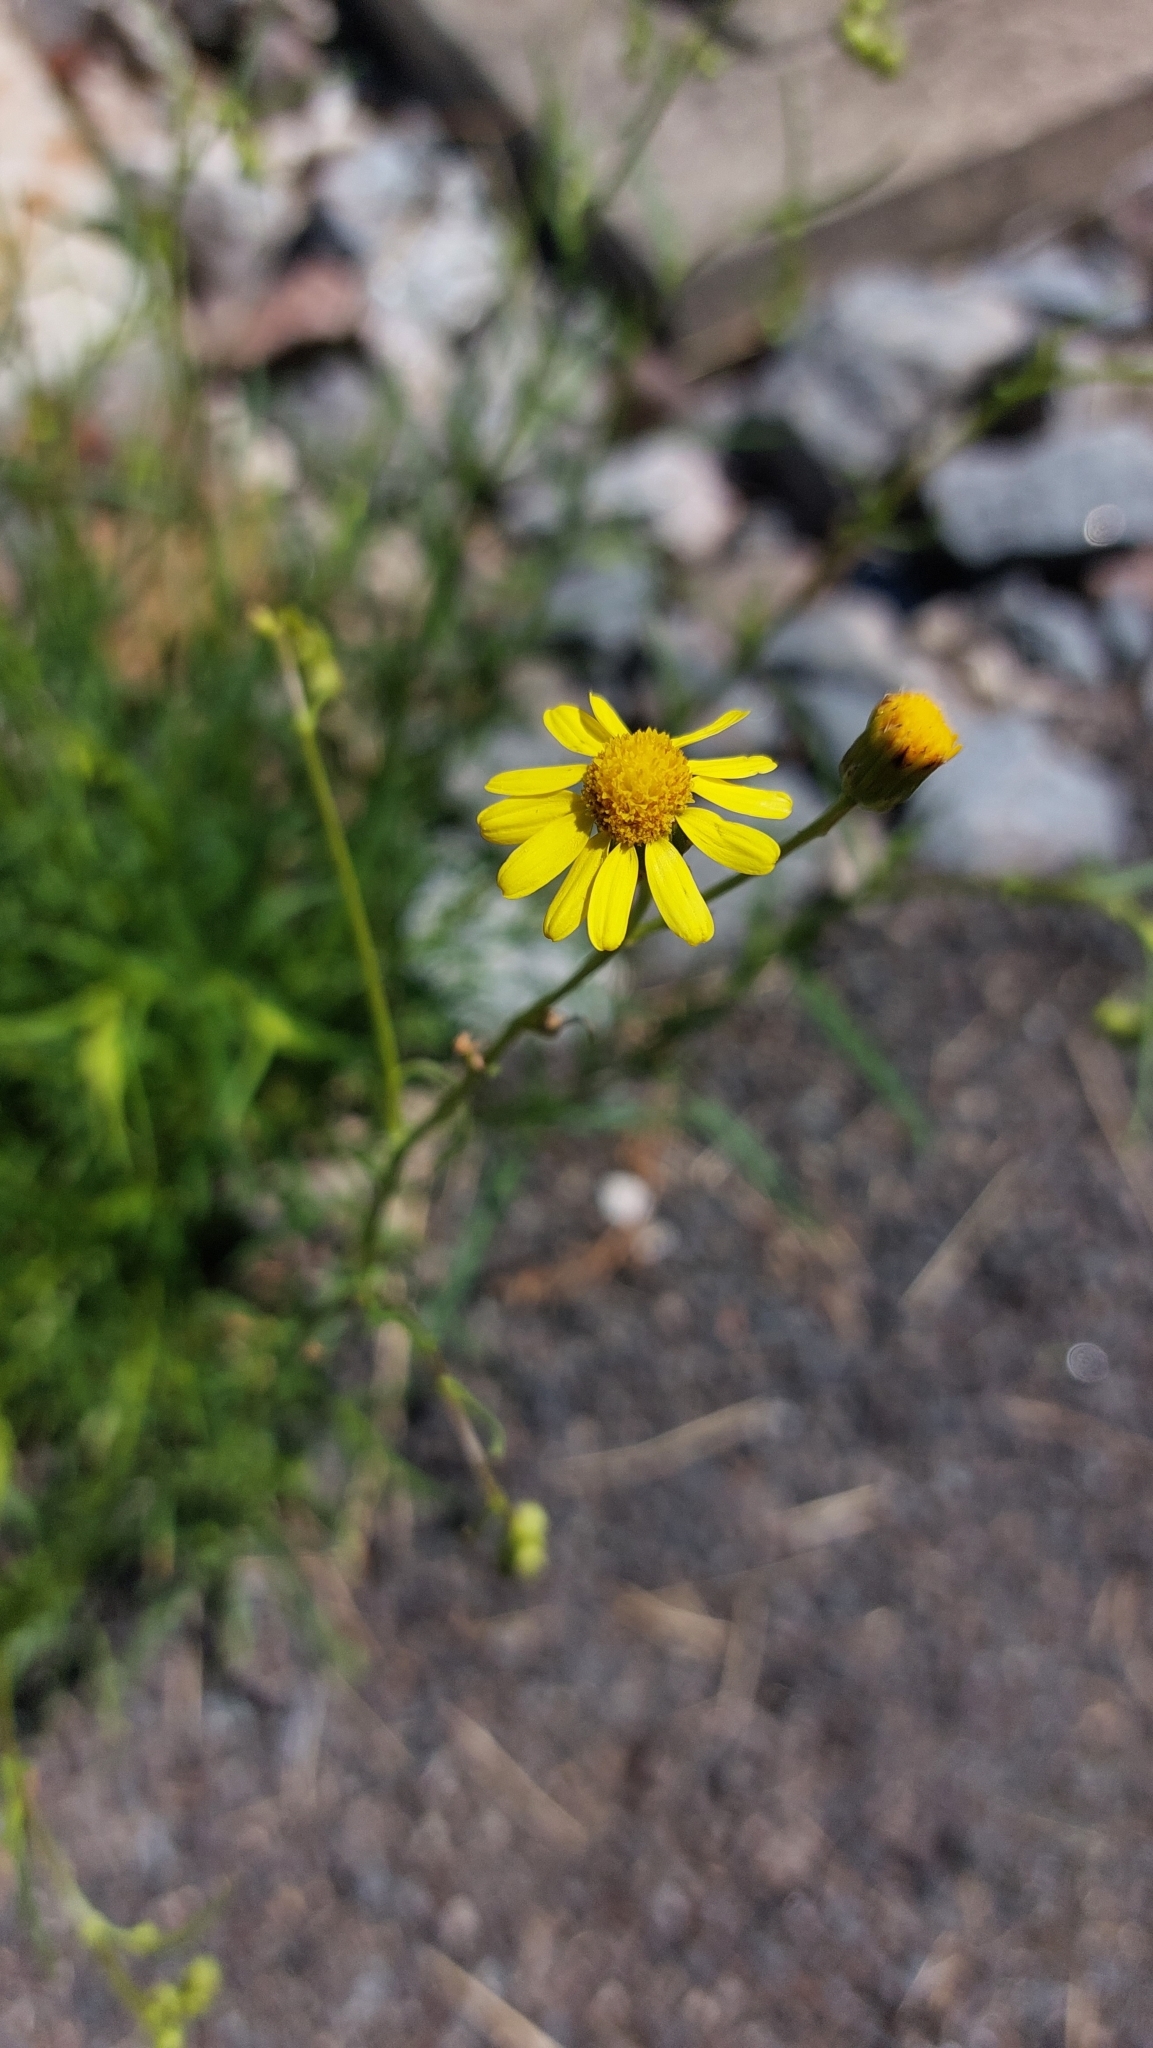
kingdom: Plantae
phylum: Tracheophyta
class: Magnoliopsida
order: Asterales
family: Asteraceae
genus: Senecio
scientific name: Senecio inaequidens
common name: Narrow-leaved ragwort
